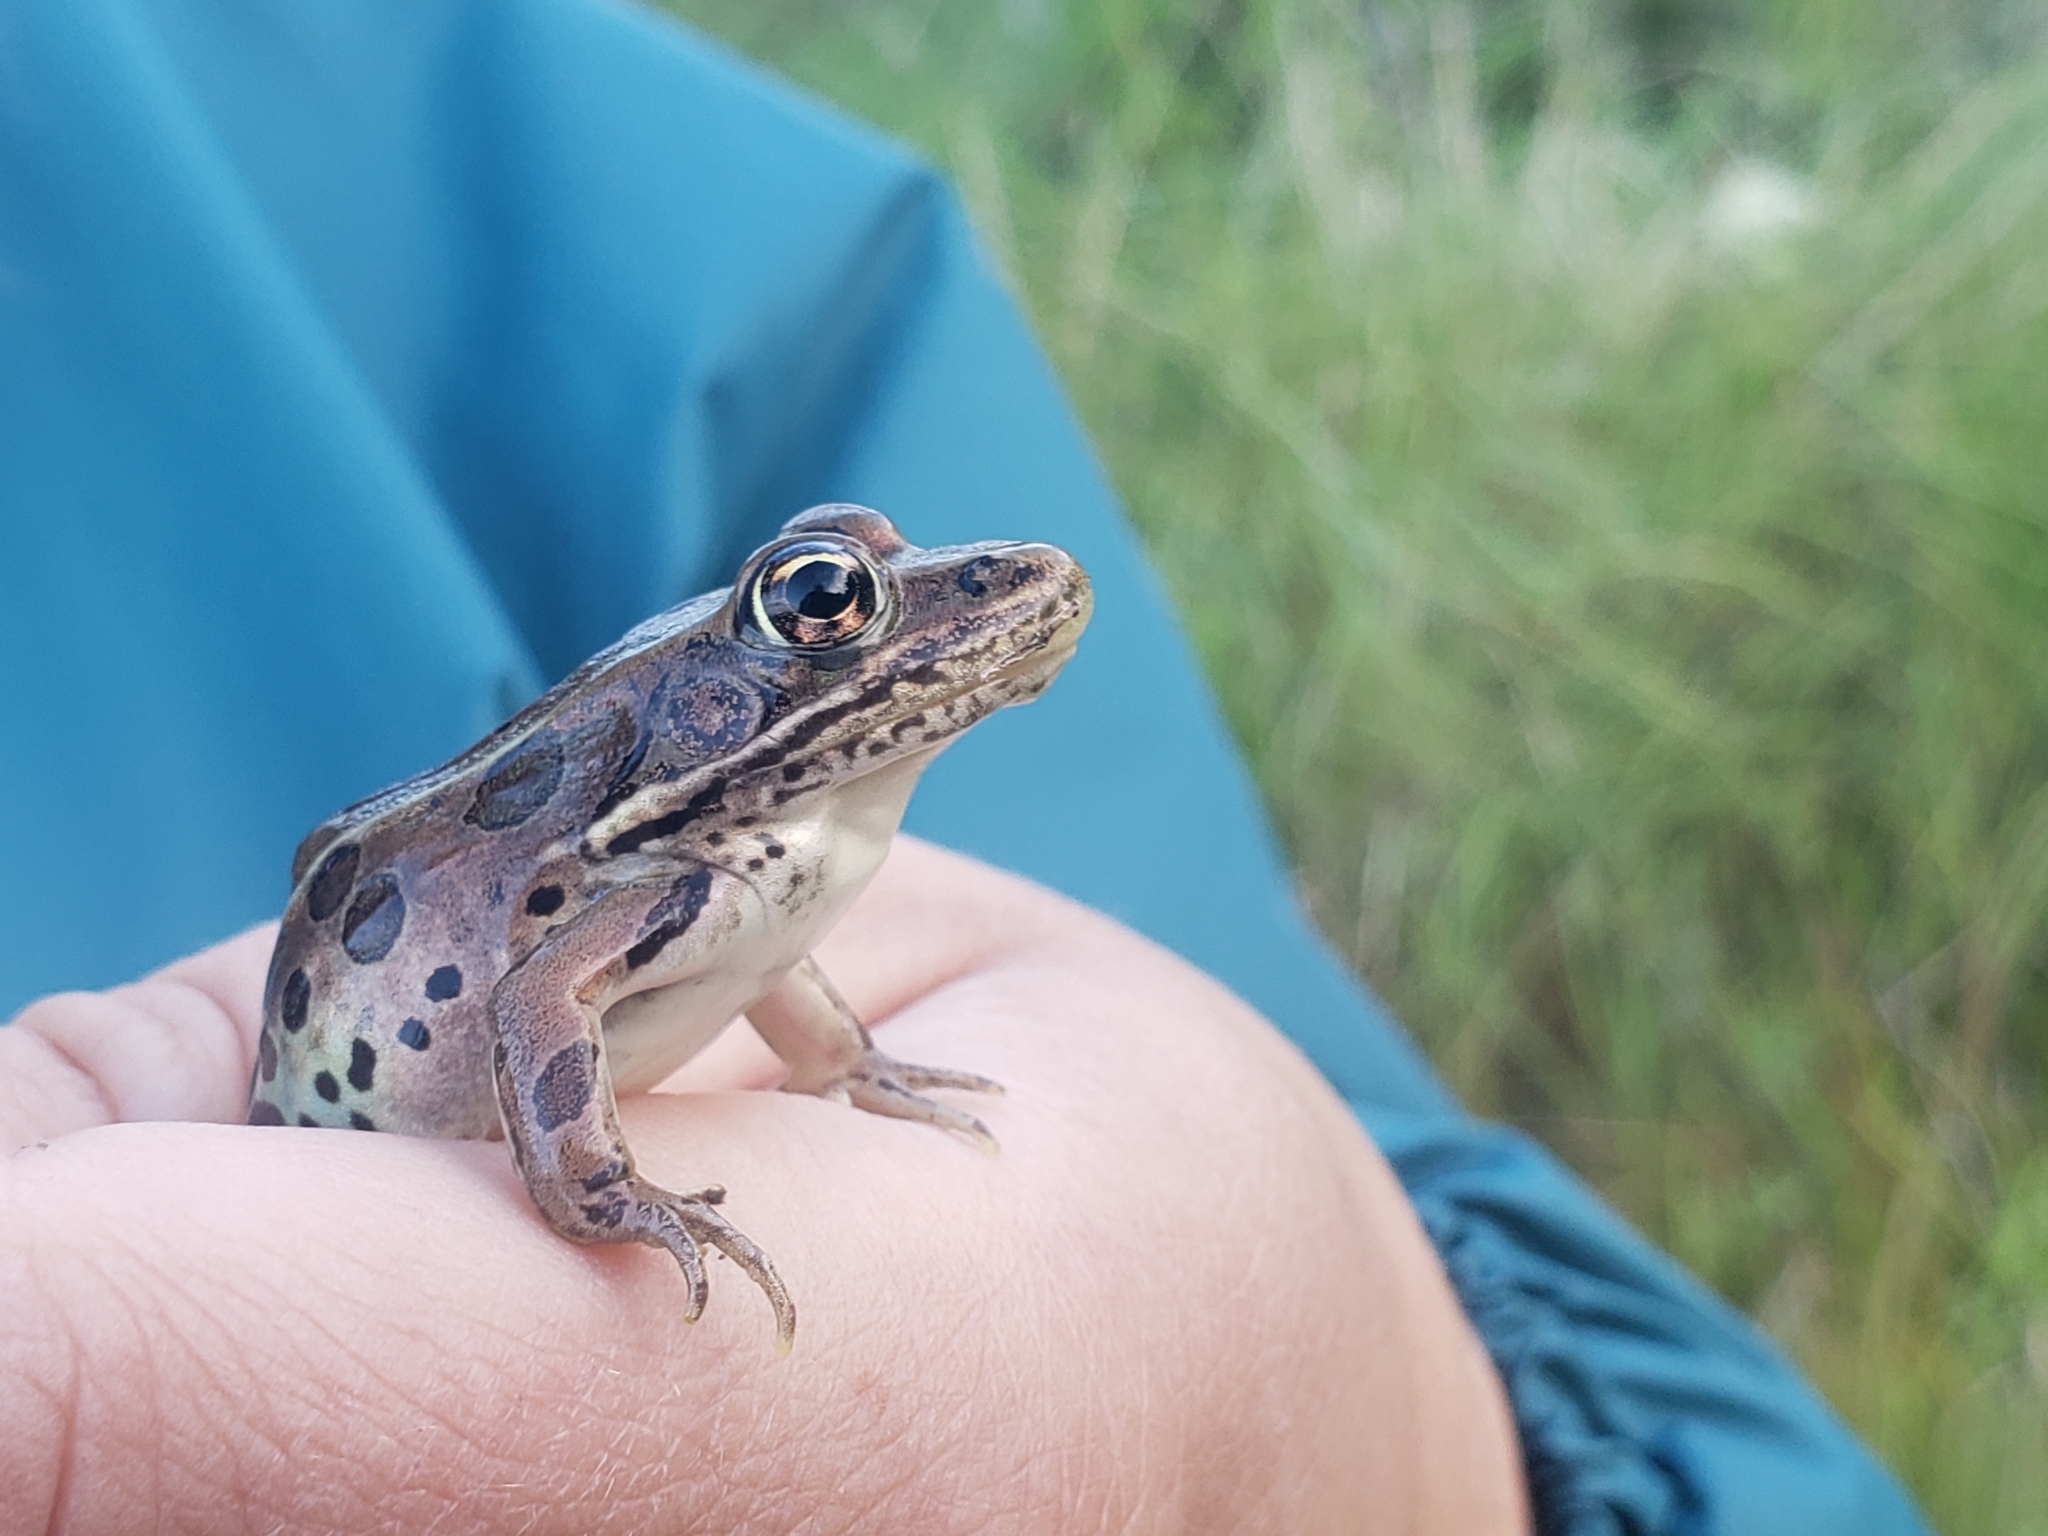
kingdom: Animalia
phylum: Chordata
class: Amphibia
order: Anura
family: Ranidae
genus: Lithobates
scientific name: Lithobates pipiens
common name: Northern leopard frog
